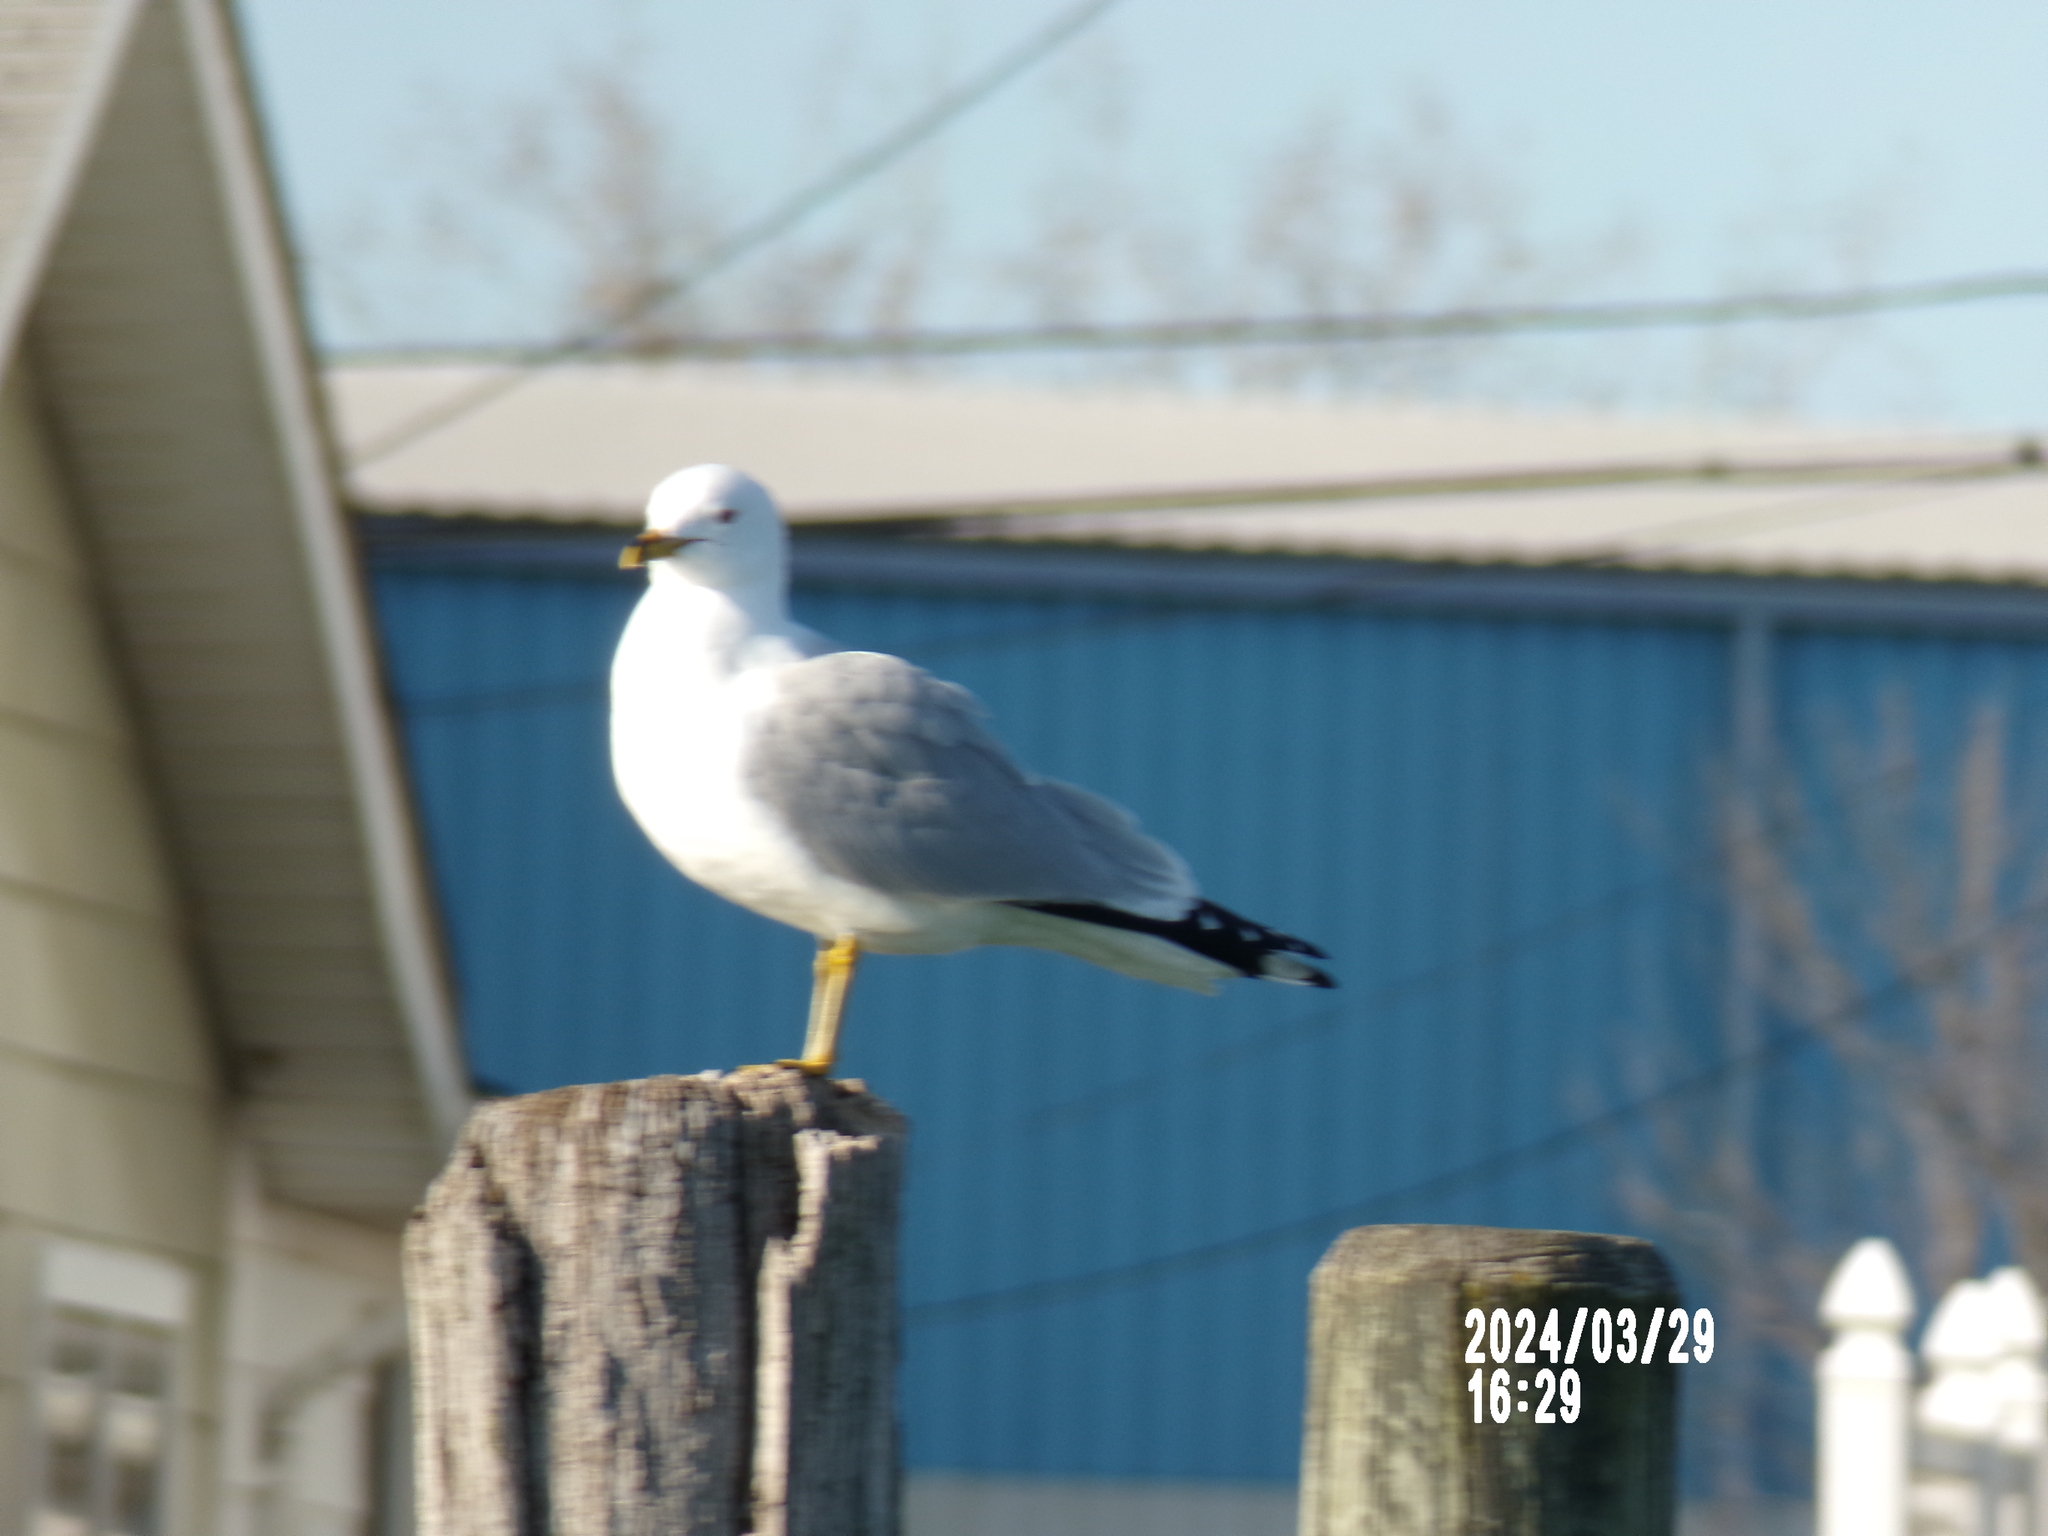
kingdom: Animalia
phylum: Chordata
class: Aves
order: Charadriiformes
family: Laridae
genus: Larus
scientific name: Larus delawarensis
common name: Ring-billed gull
